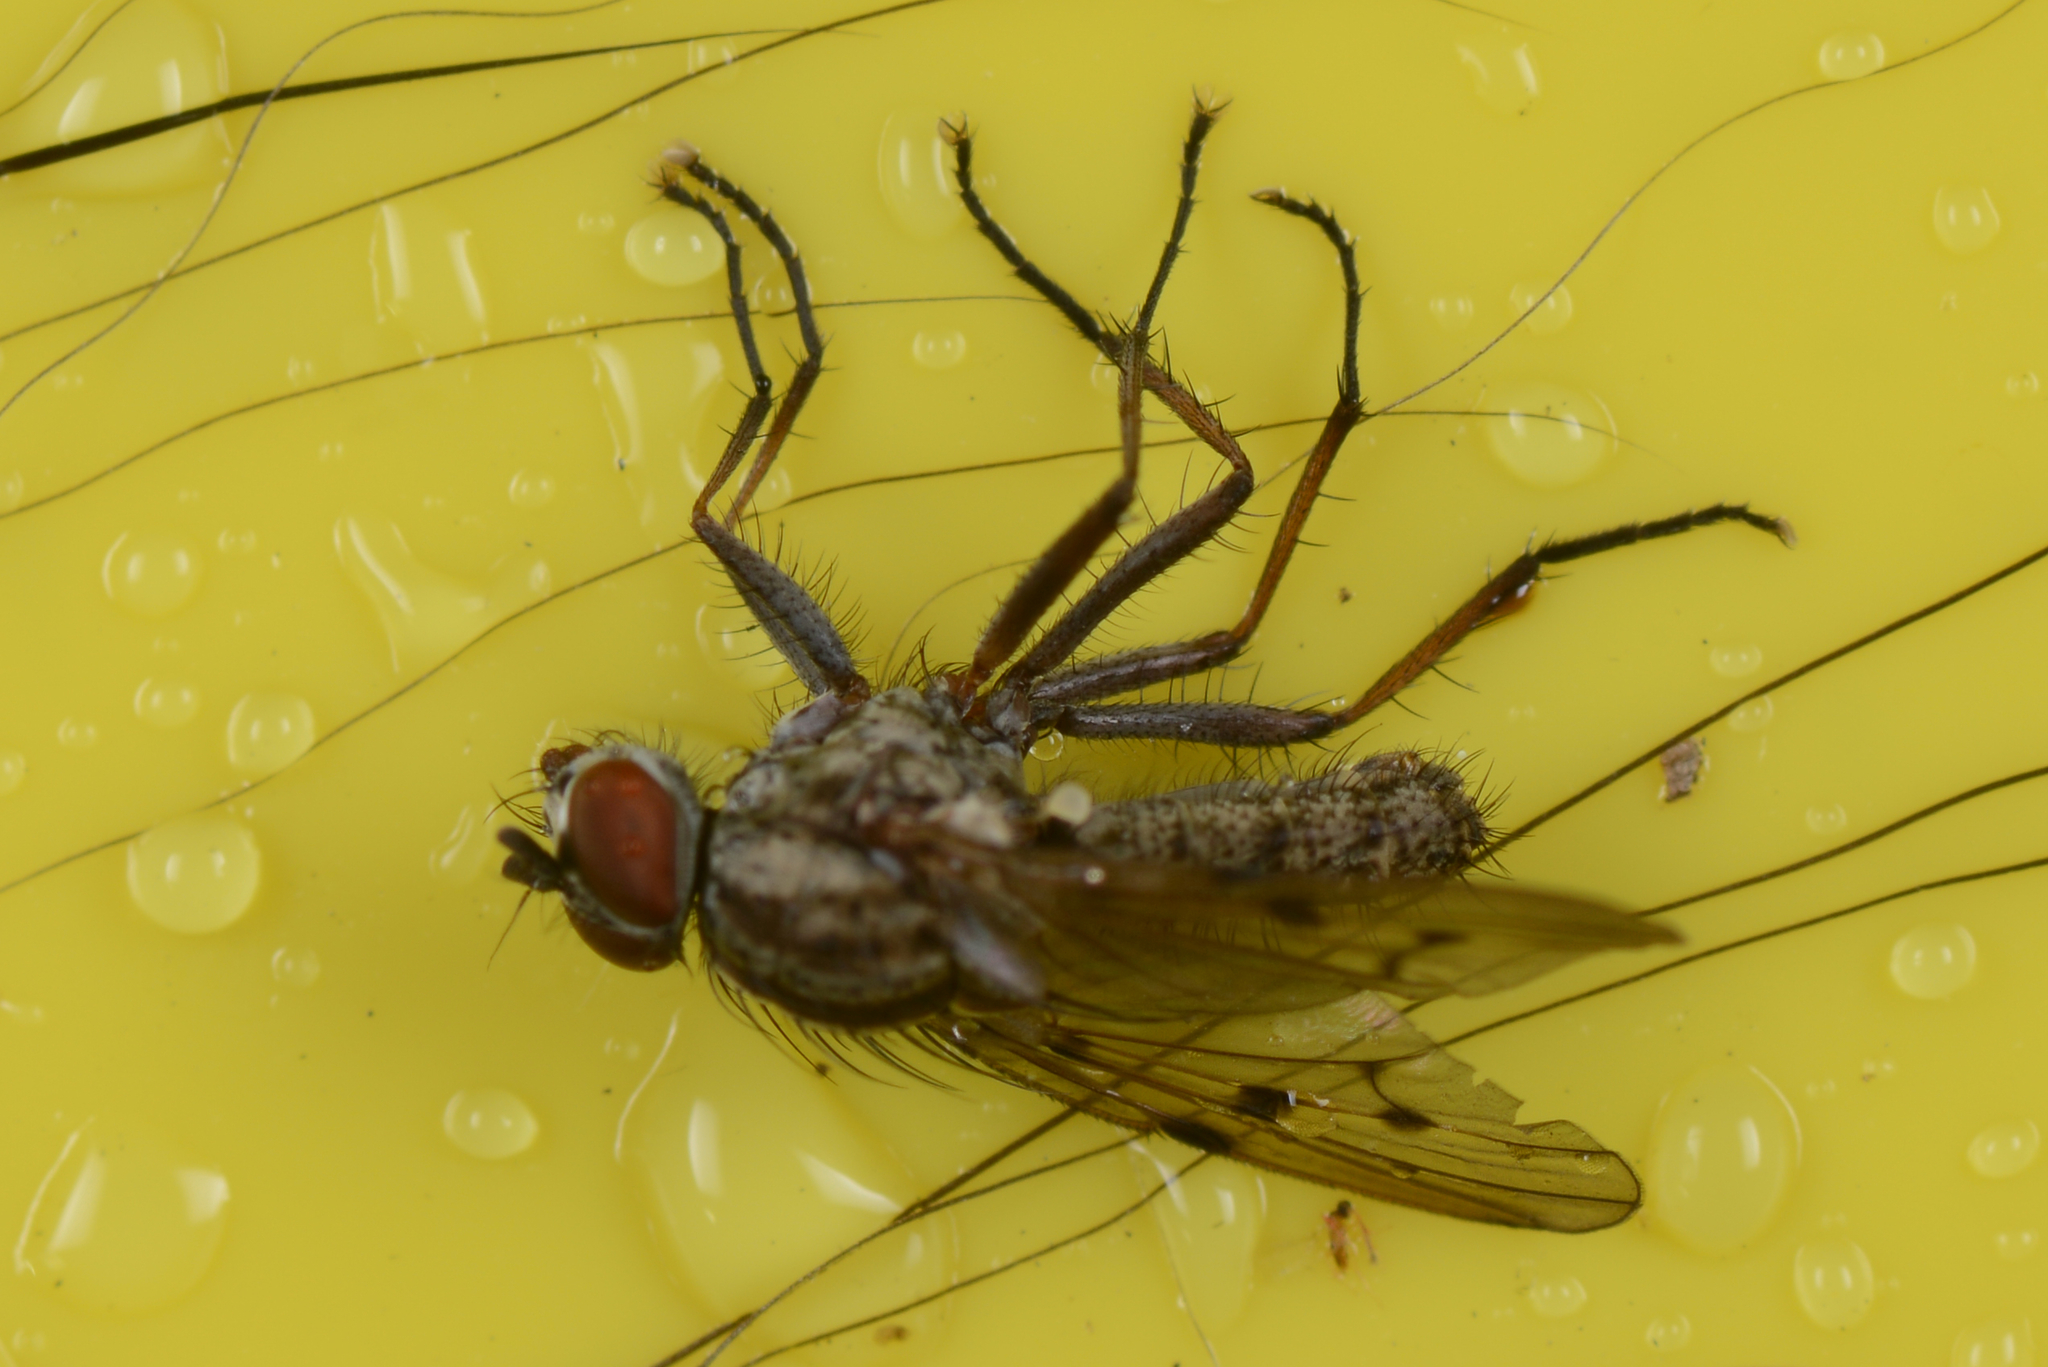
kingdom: Animalia
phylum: Arthropoda
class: Insecta
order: Diptera
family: Anthomyiidae
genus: Anthomyia
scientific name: Anthomyia punctipennis
